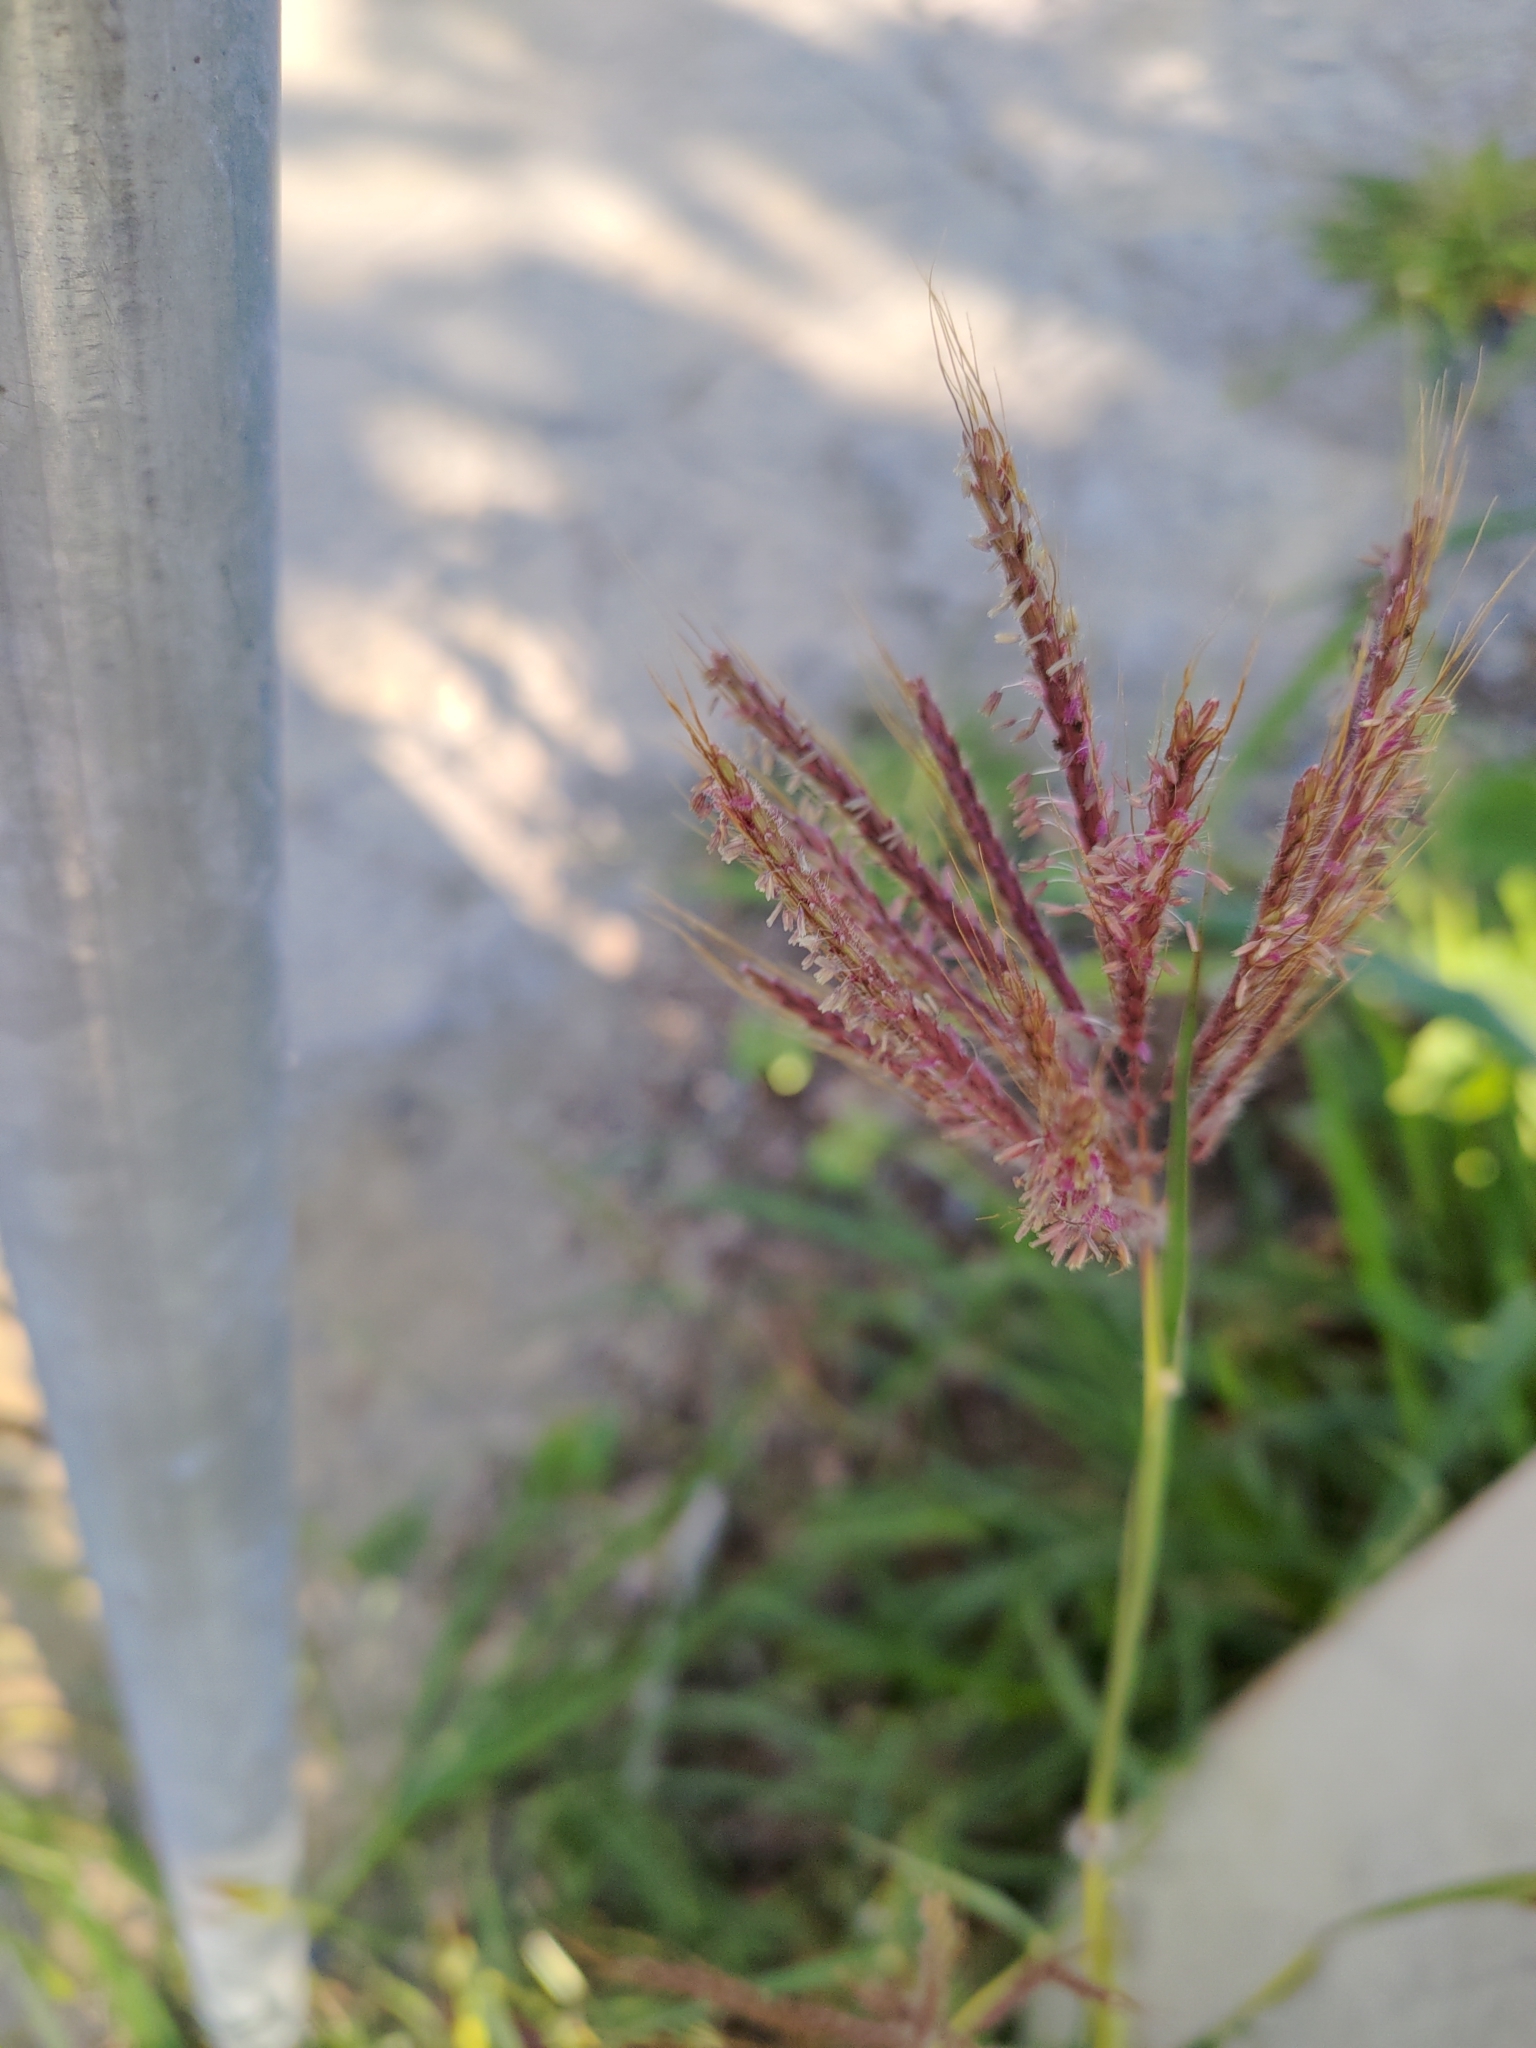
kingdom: Plantae
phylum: Tracheophyta
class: Liliopsida
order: Poales
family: Poaceae
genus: Dichanthium
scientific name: Dichanthium annulatum
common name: Kleberg's bluestem
